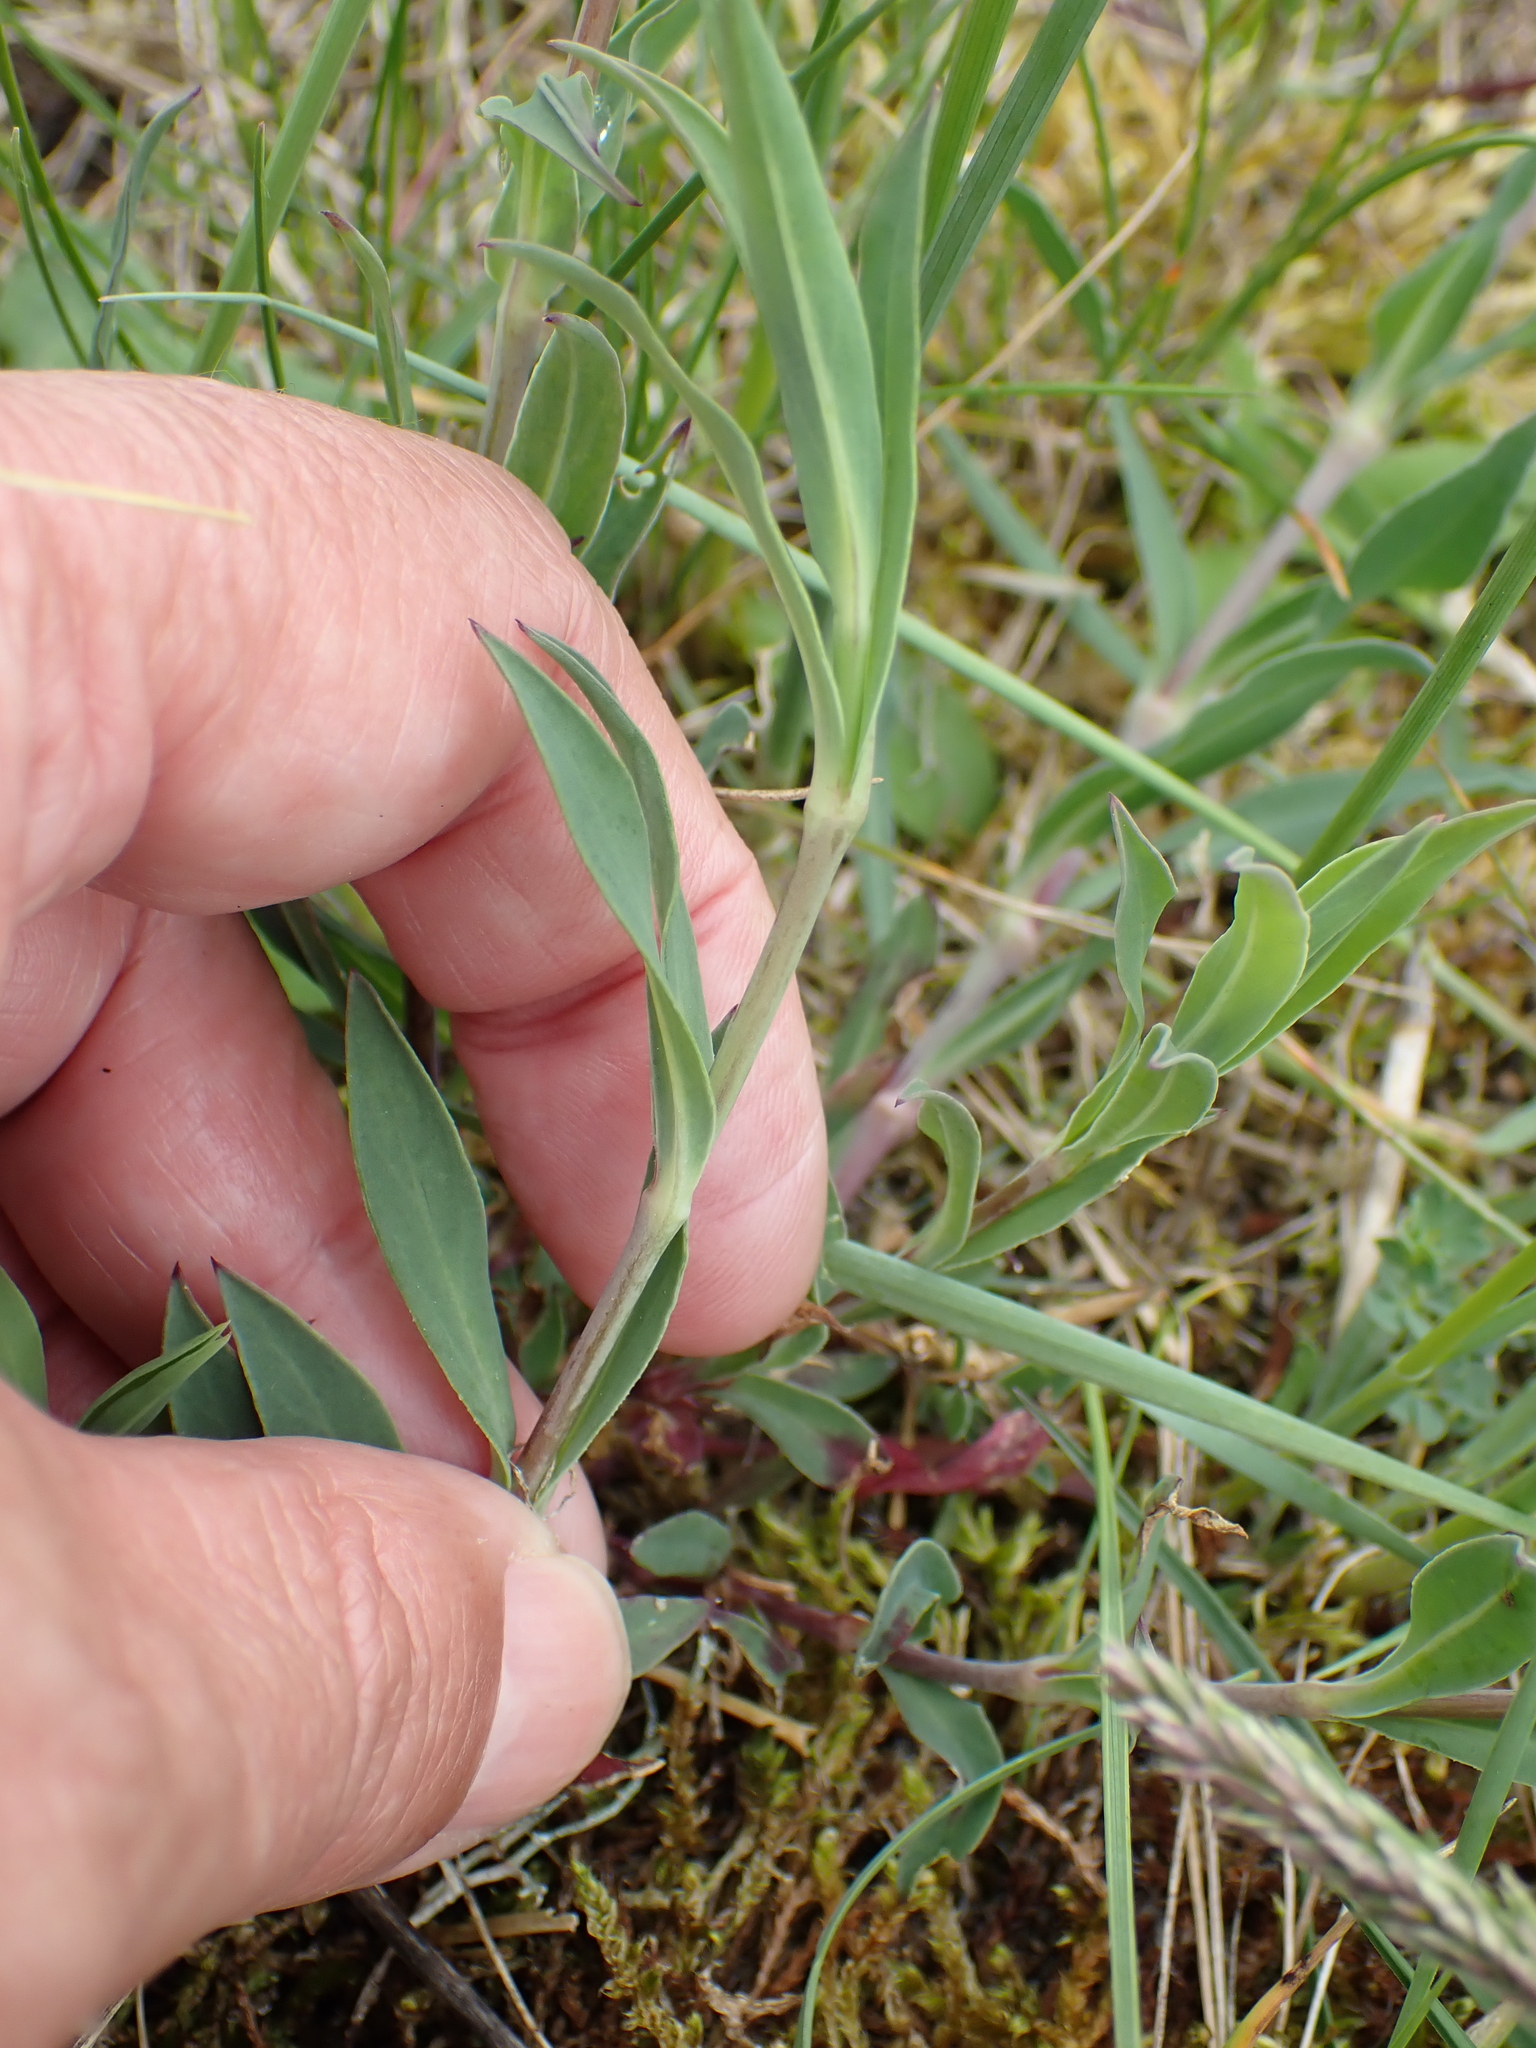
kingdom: Plantae
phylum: Tracheophyta
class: Magnoliopsida
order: Caryophyllales
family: Caryophyllaceae
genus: Silene
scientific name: Silene vulgaris
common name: Bladder campion
